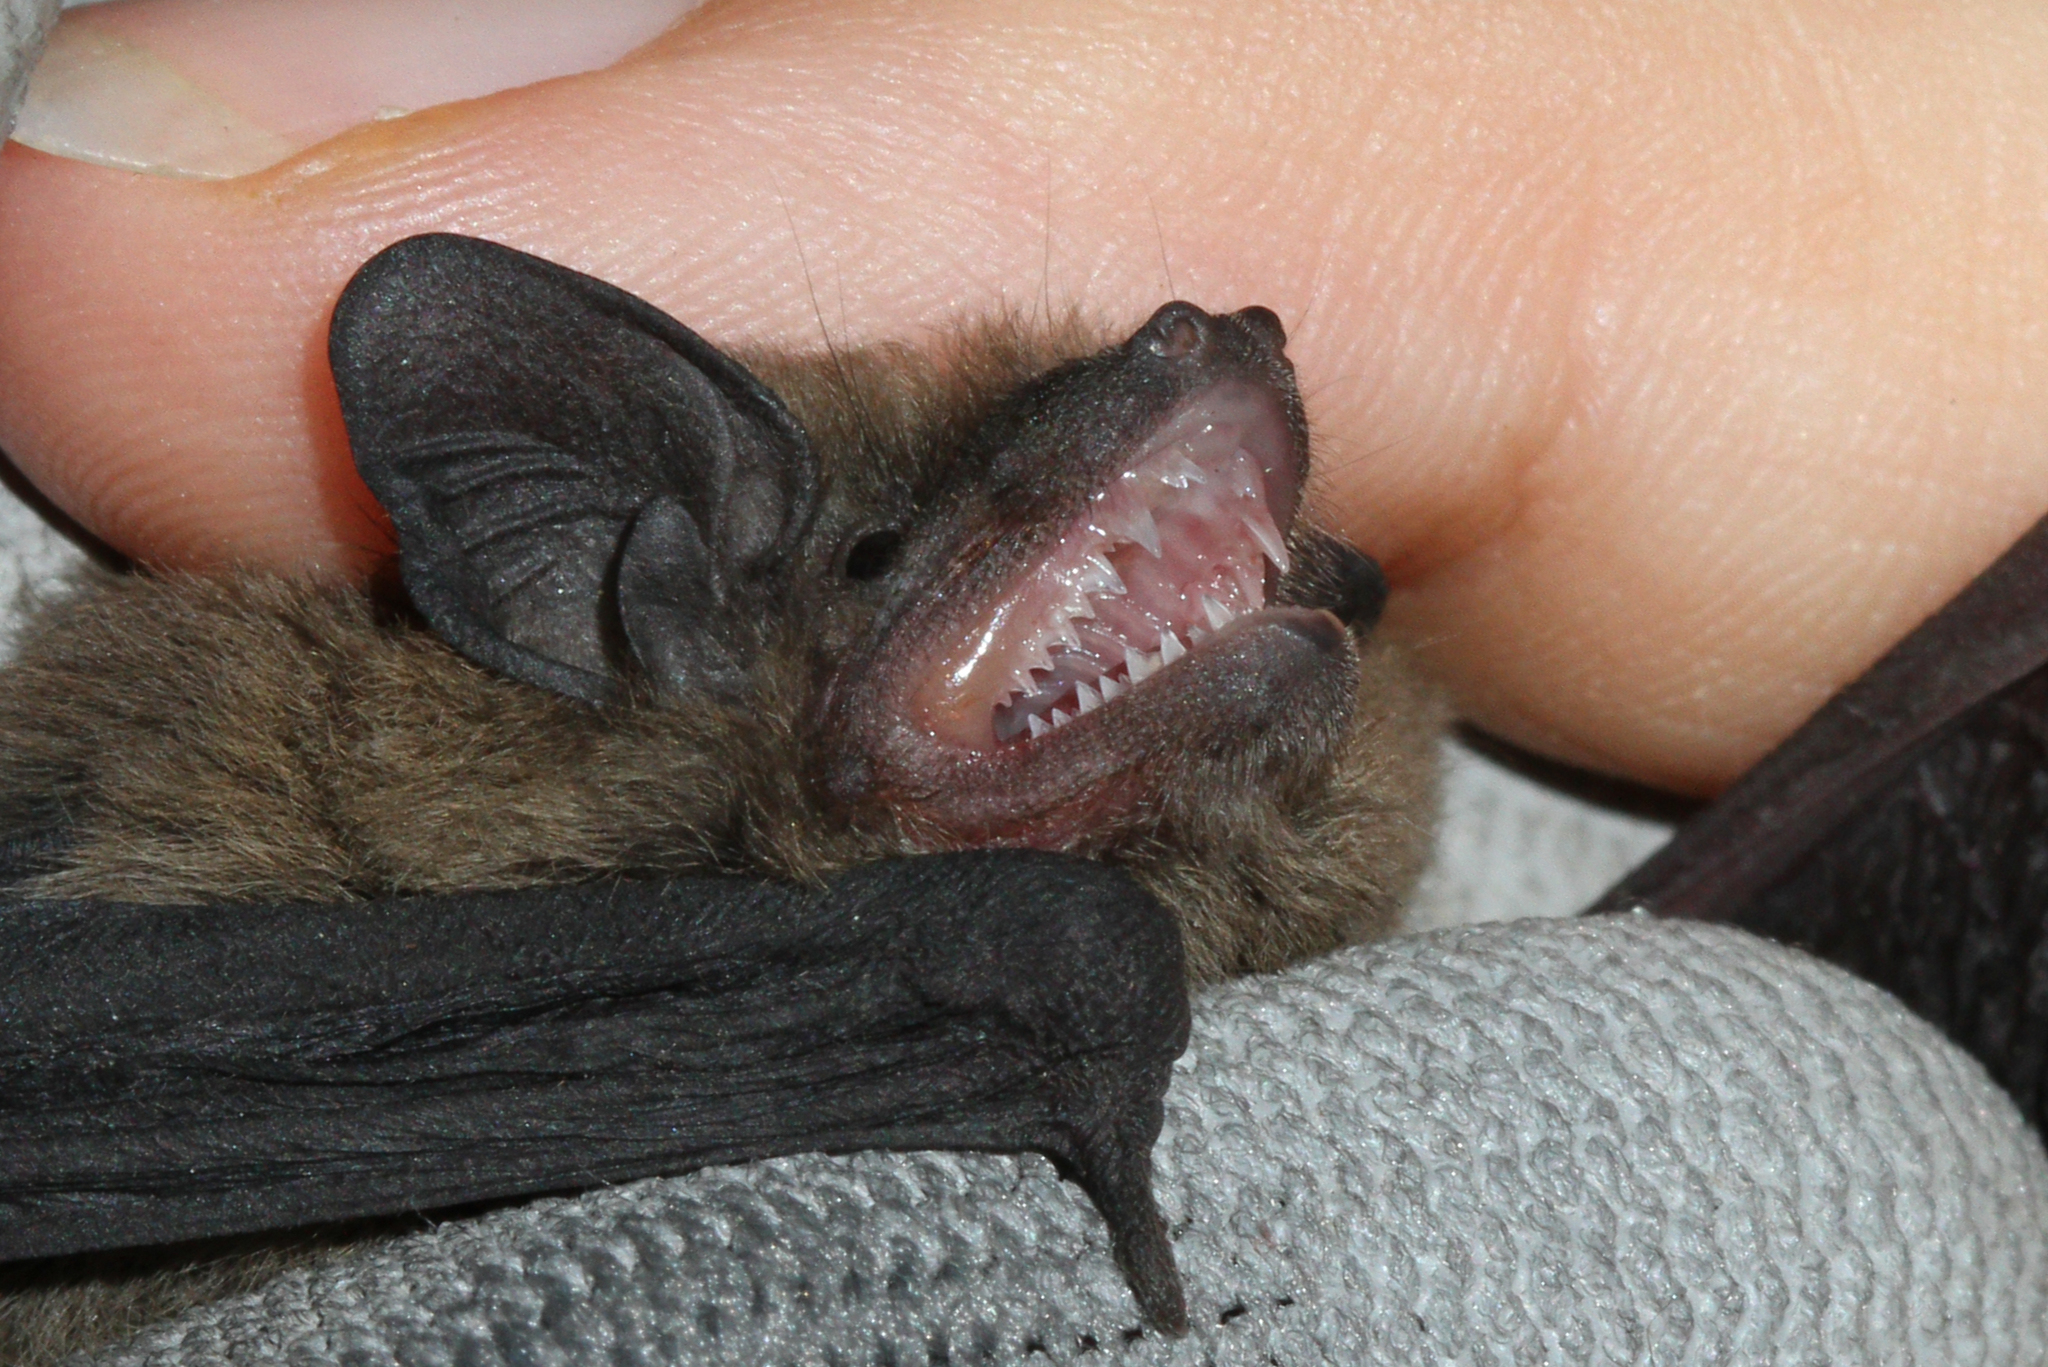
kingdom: Animalia
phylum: Chordata
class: Mammalia
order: Chiroptera
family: Vespertilionidae
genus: Pipistrellus
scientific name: Pipistrellus pipistrellus
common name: Common pipistrelle
